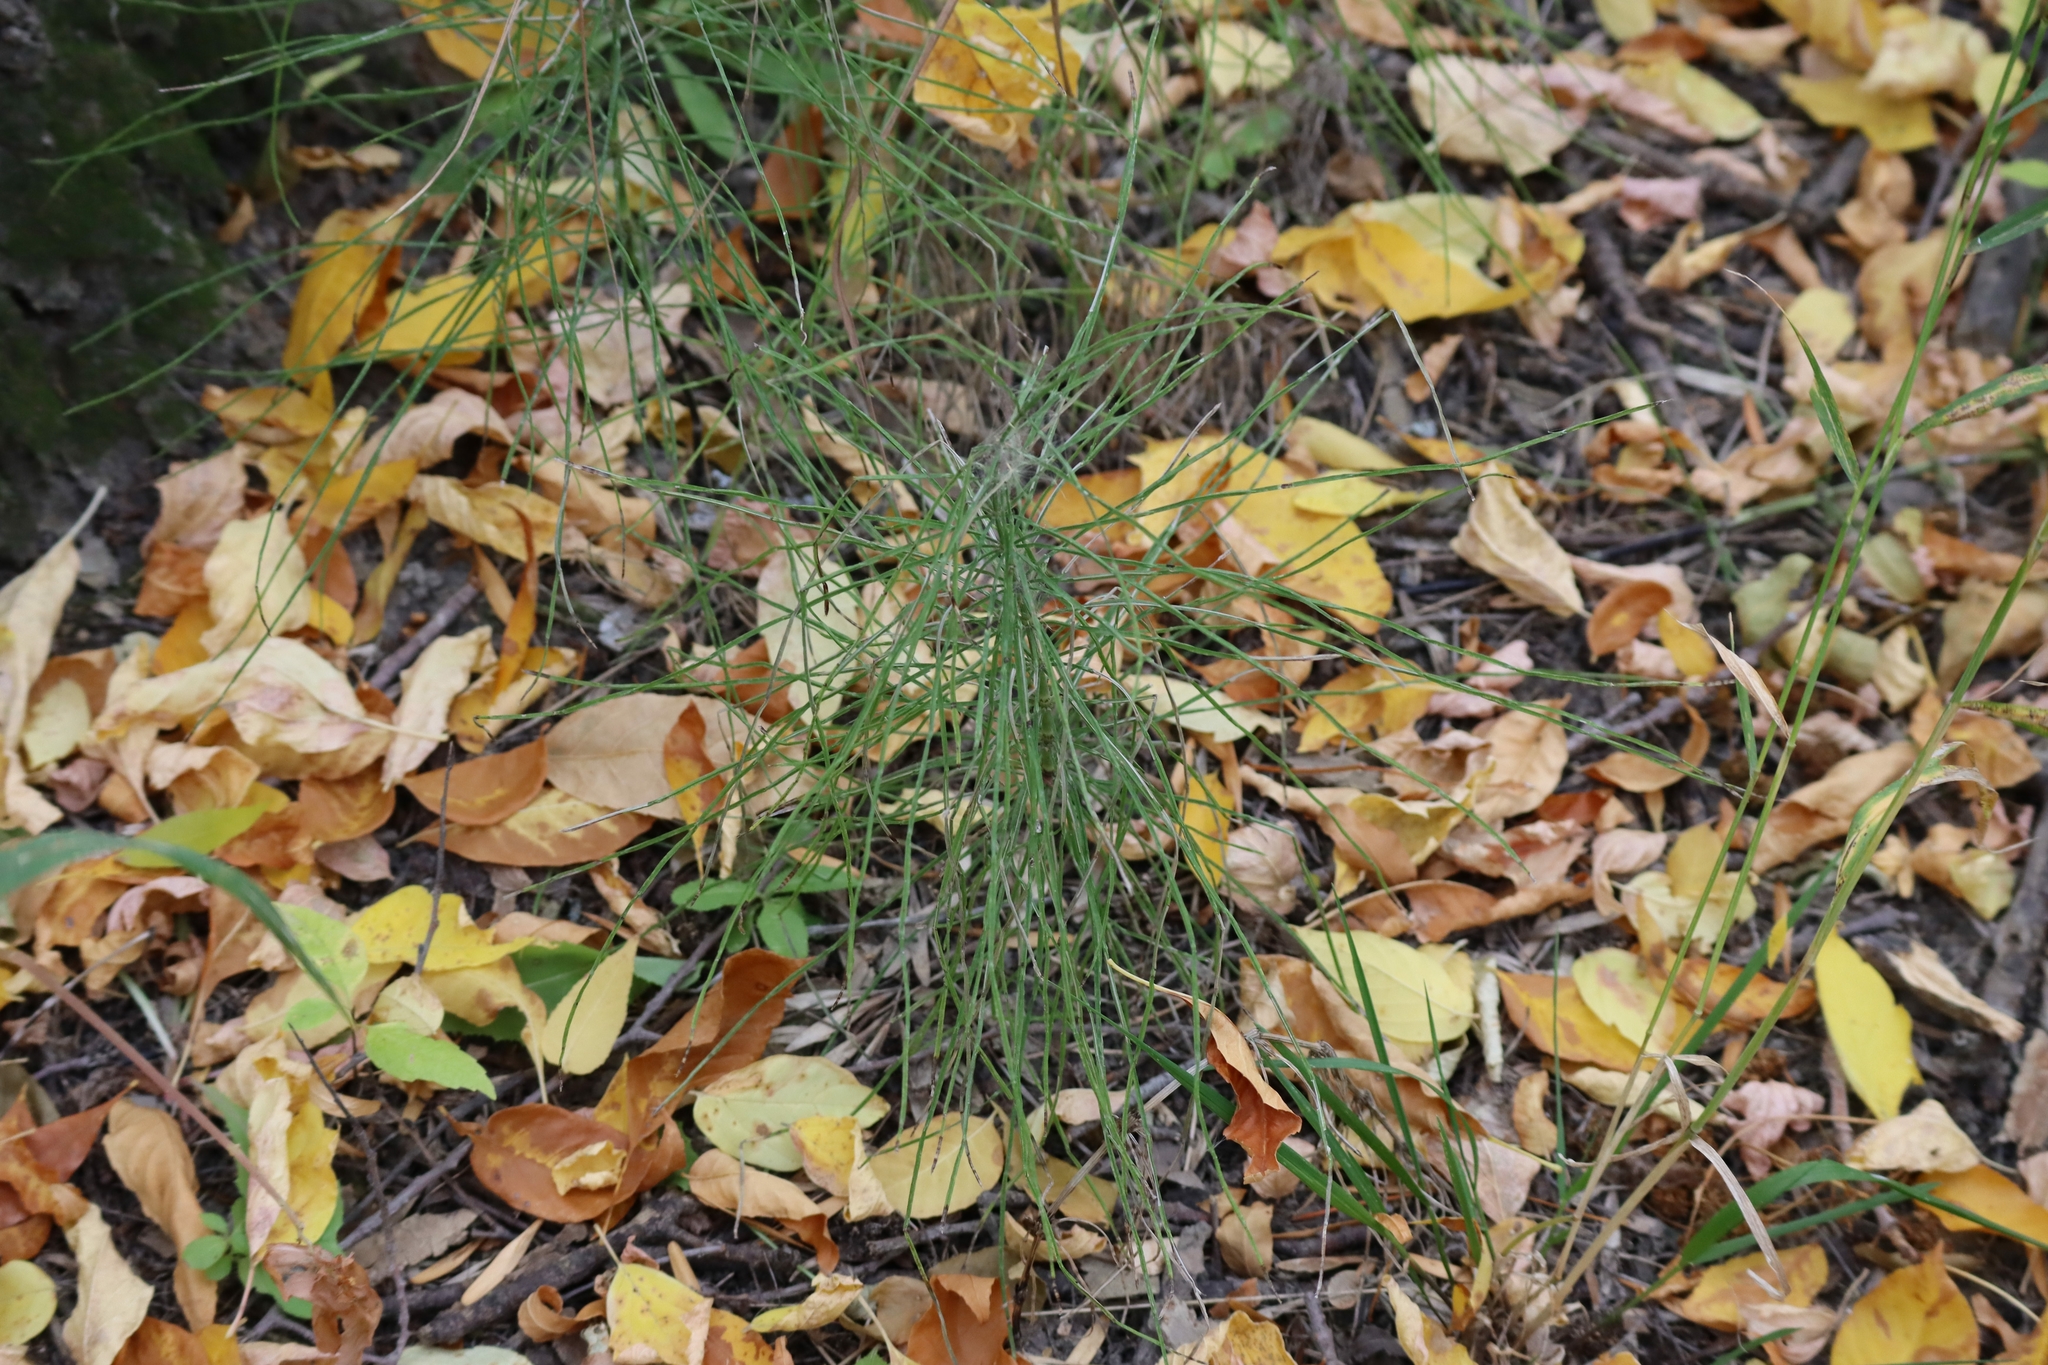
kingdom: Plantae
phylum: Tracheophyta
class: Polypodiopsida
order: Equisetales
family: Equisetaceae
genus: Equisetum
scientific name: Equisetum arvense
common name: Field horsetail
